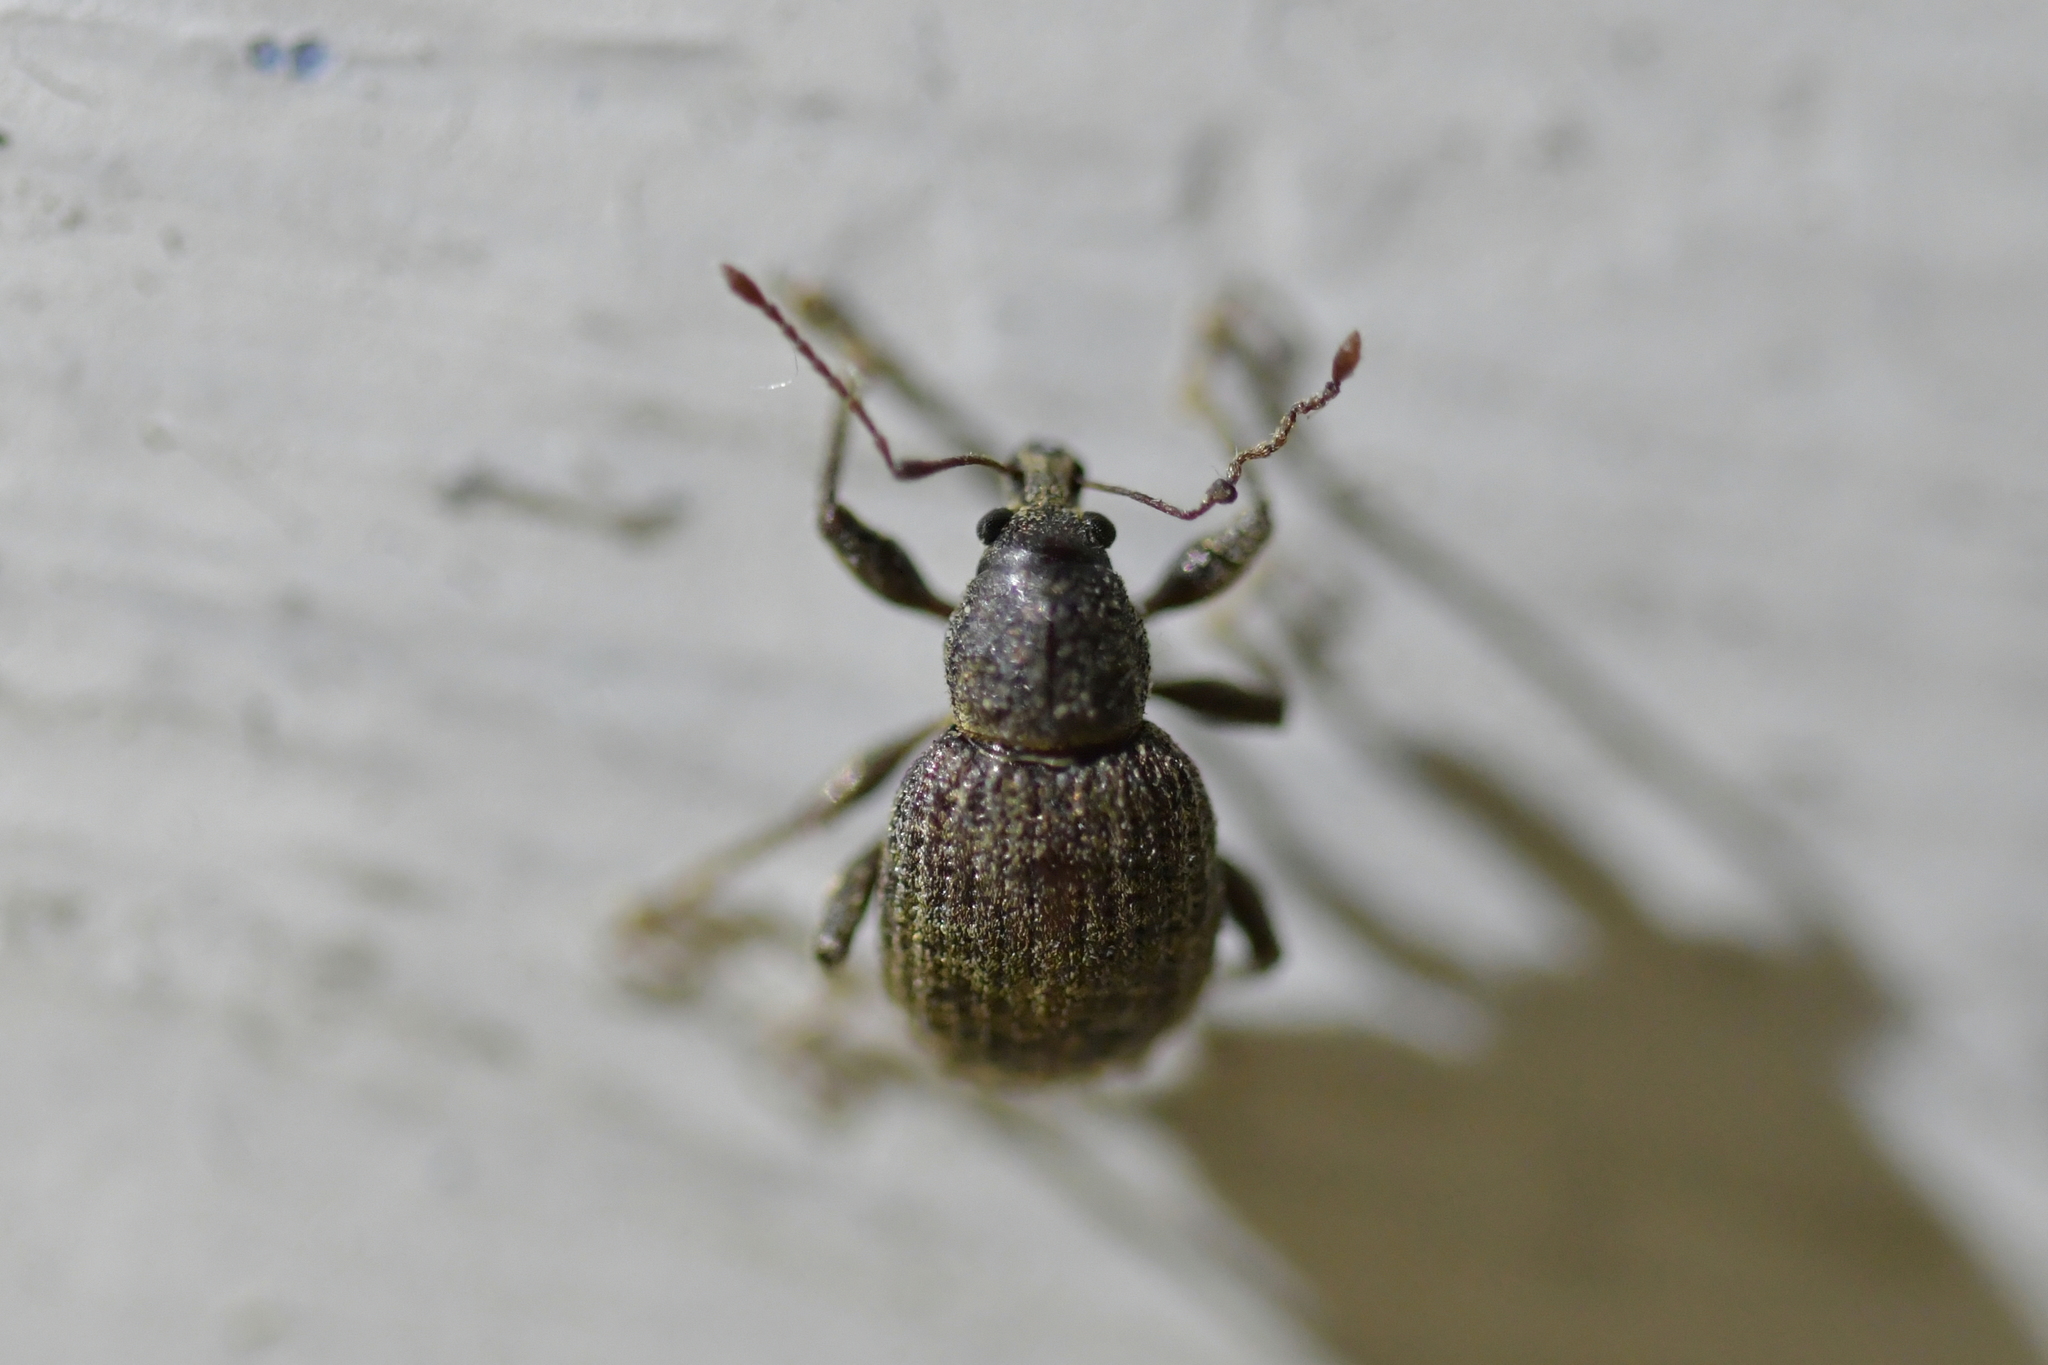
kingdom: Animalia
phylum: Arthropoda
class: Insecta
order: Coleoptera
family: Curculionidae
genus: Phlyctinus
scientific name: Phlyctinus callosus
